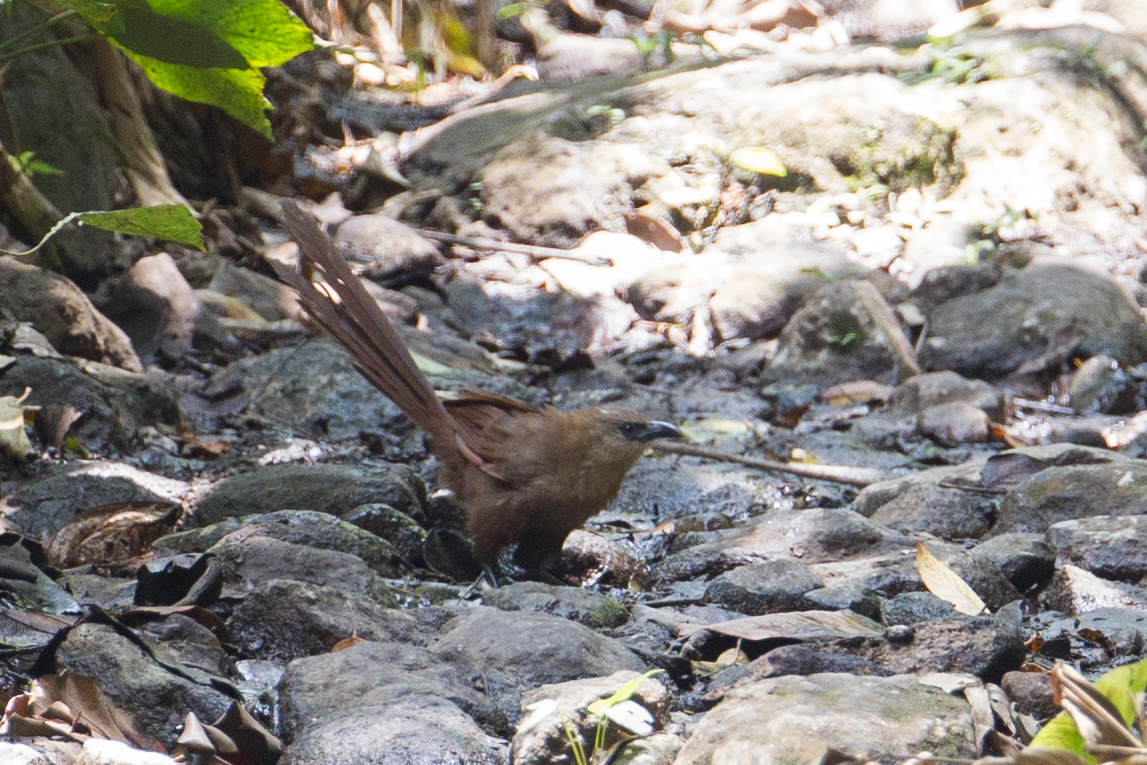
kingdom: Animalia
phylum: Chordata
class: Aves
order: Cuculiformes
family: Cuculidae
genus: Centropus
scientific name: Centropus celebensis
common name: Bay coucal
